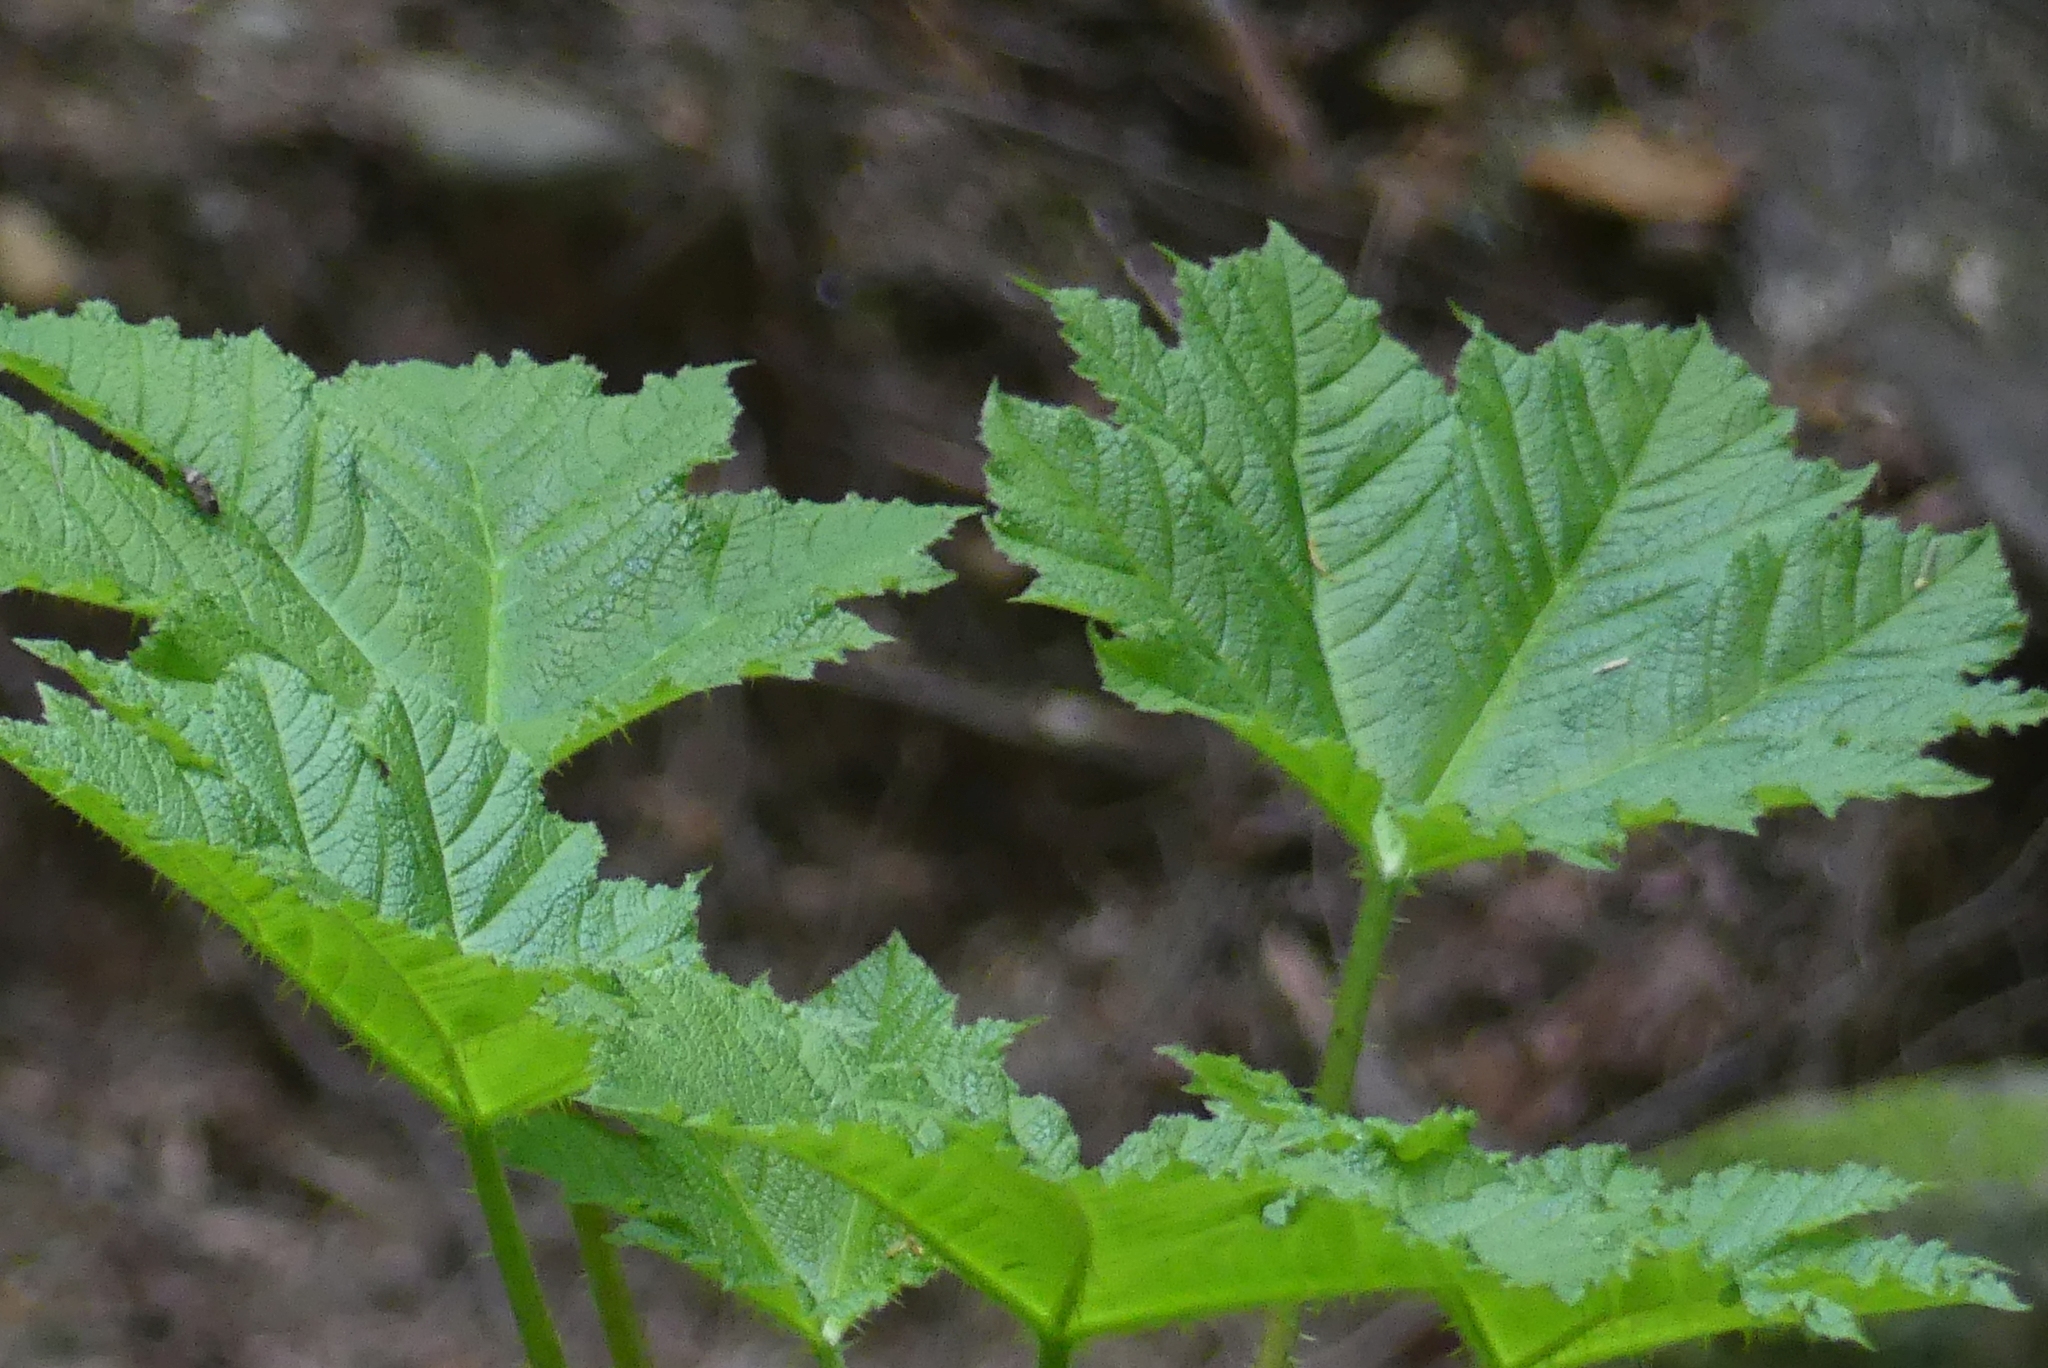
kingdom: Plantae
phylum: Tracheophyta
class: Magnoliopsida
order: Apiales
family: Araliaceae
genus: Oplopanax
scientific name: Oplopanax horridus
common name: Devil's walking-stick
